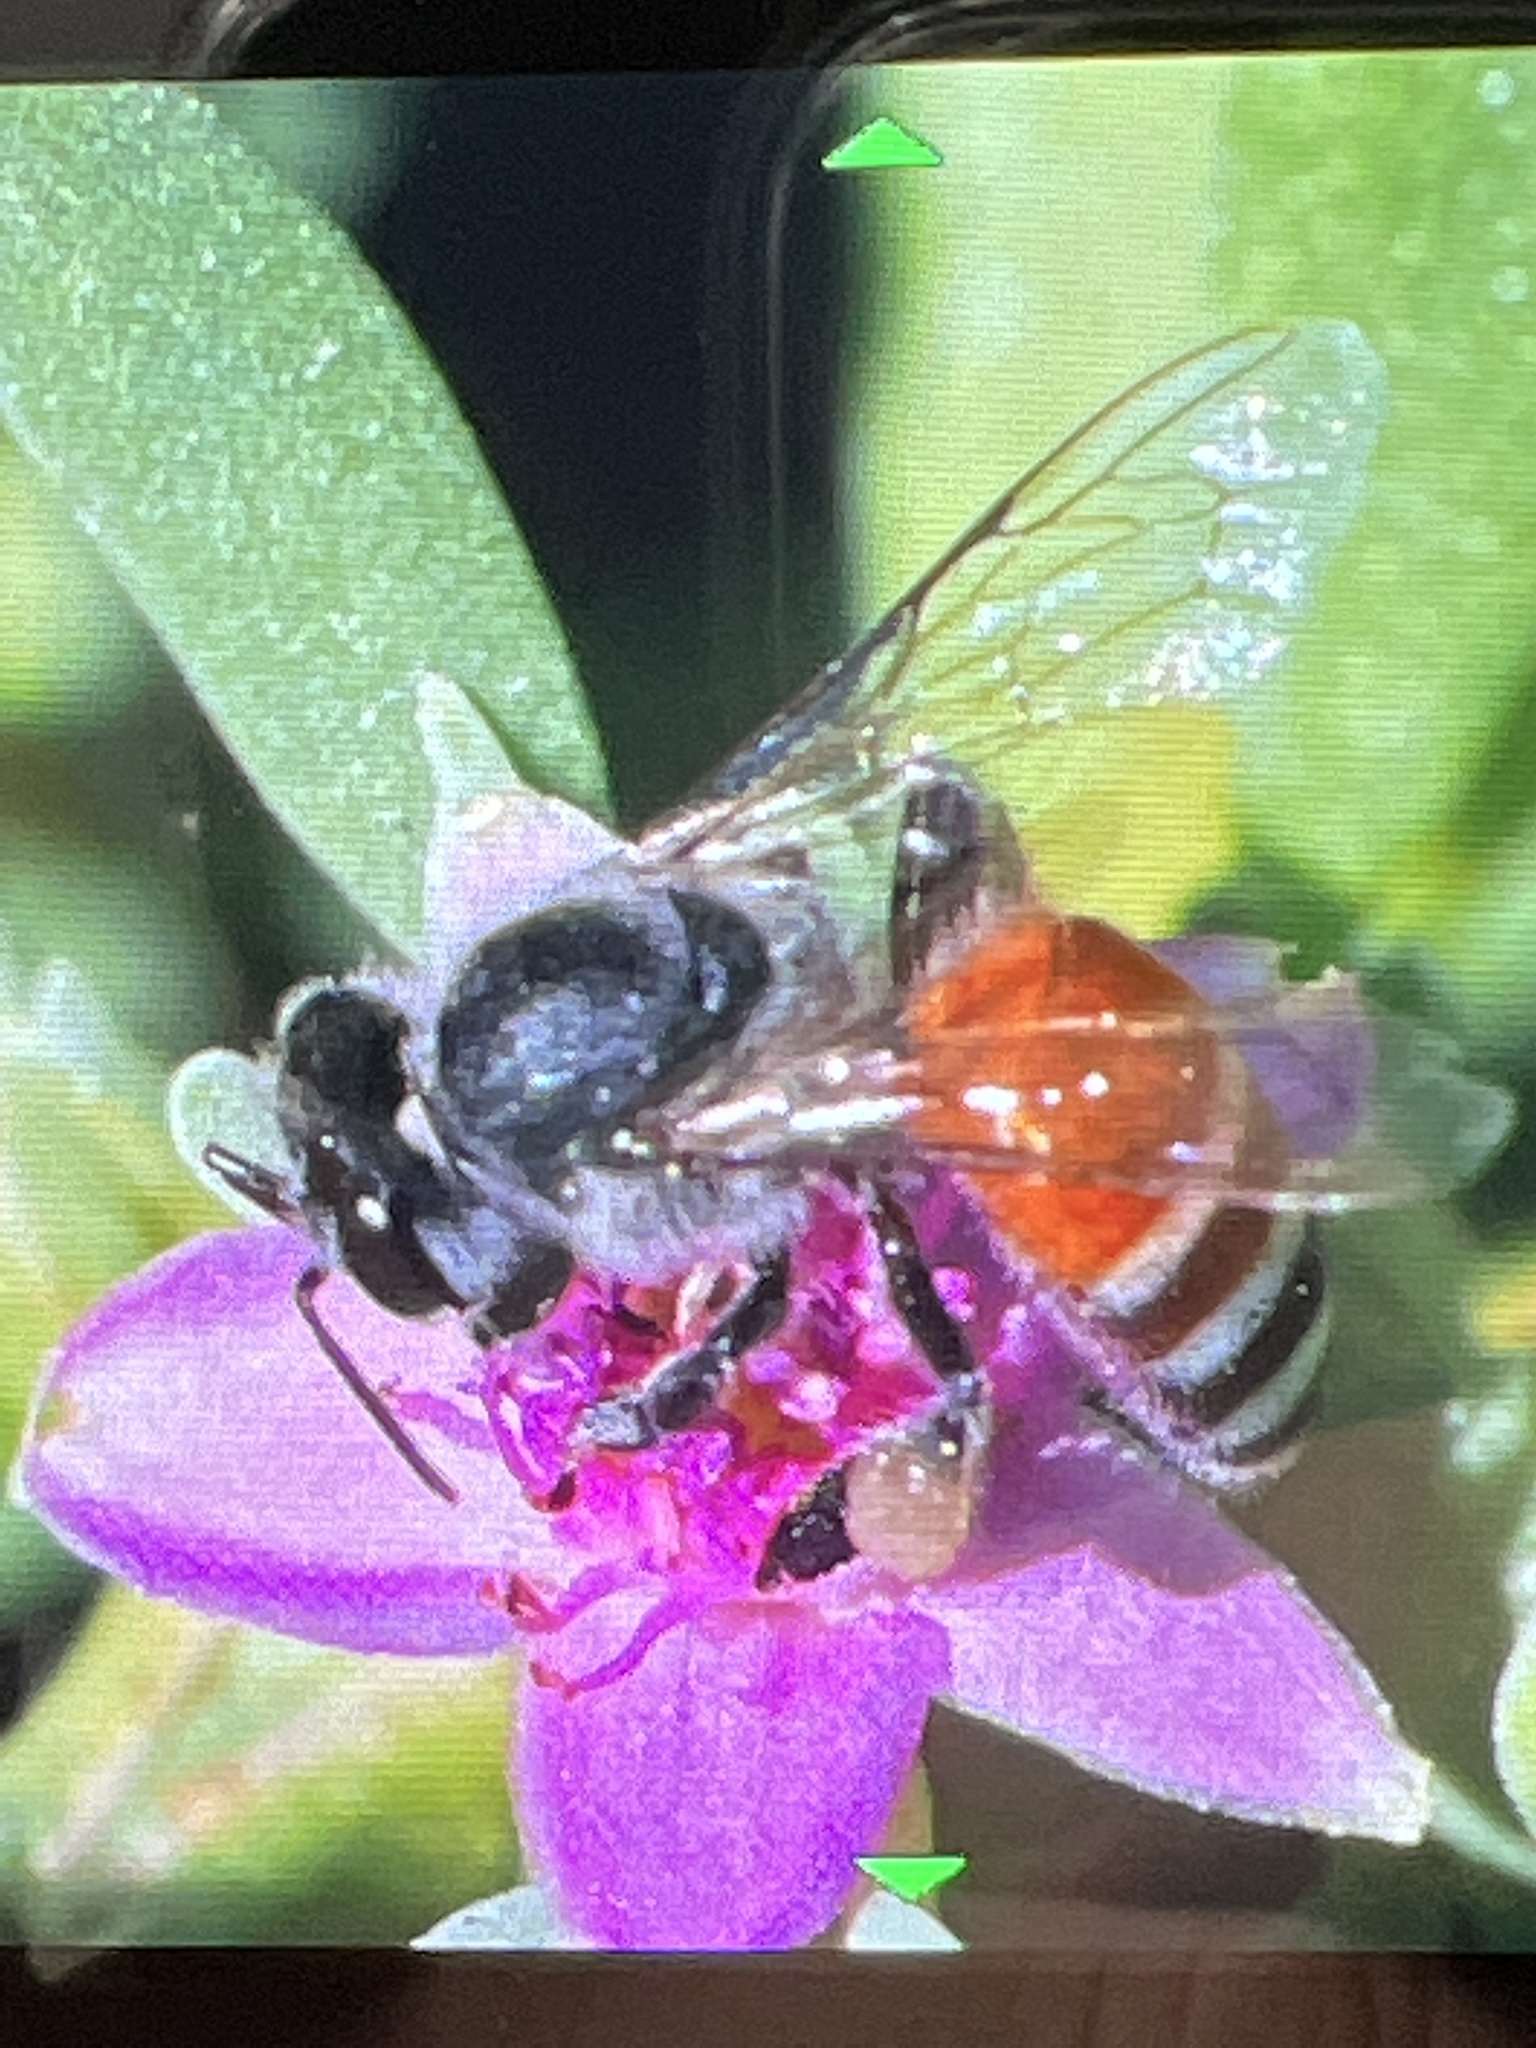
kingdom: Animalia
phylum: Arthropoda
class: Insecta
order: Hymenoptera
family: Apidae
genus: Apis
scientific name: Apis florea
